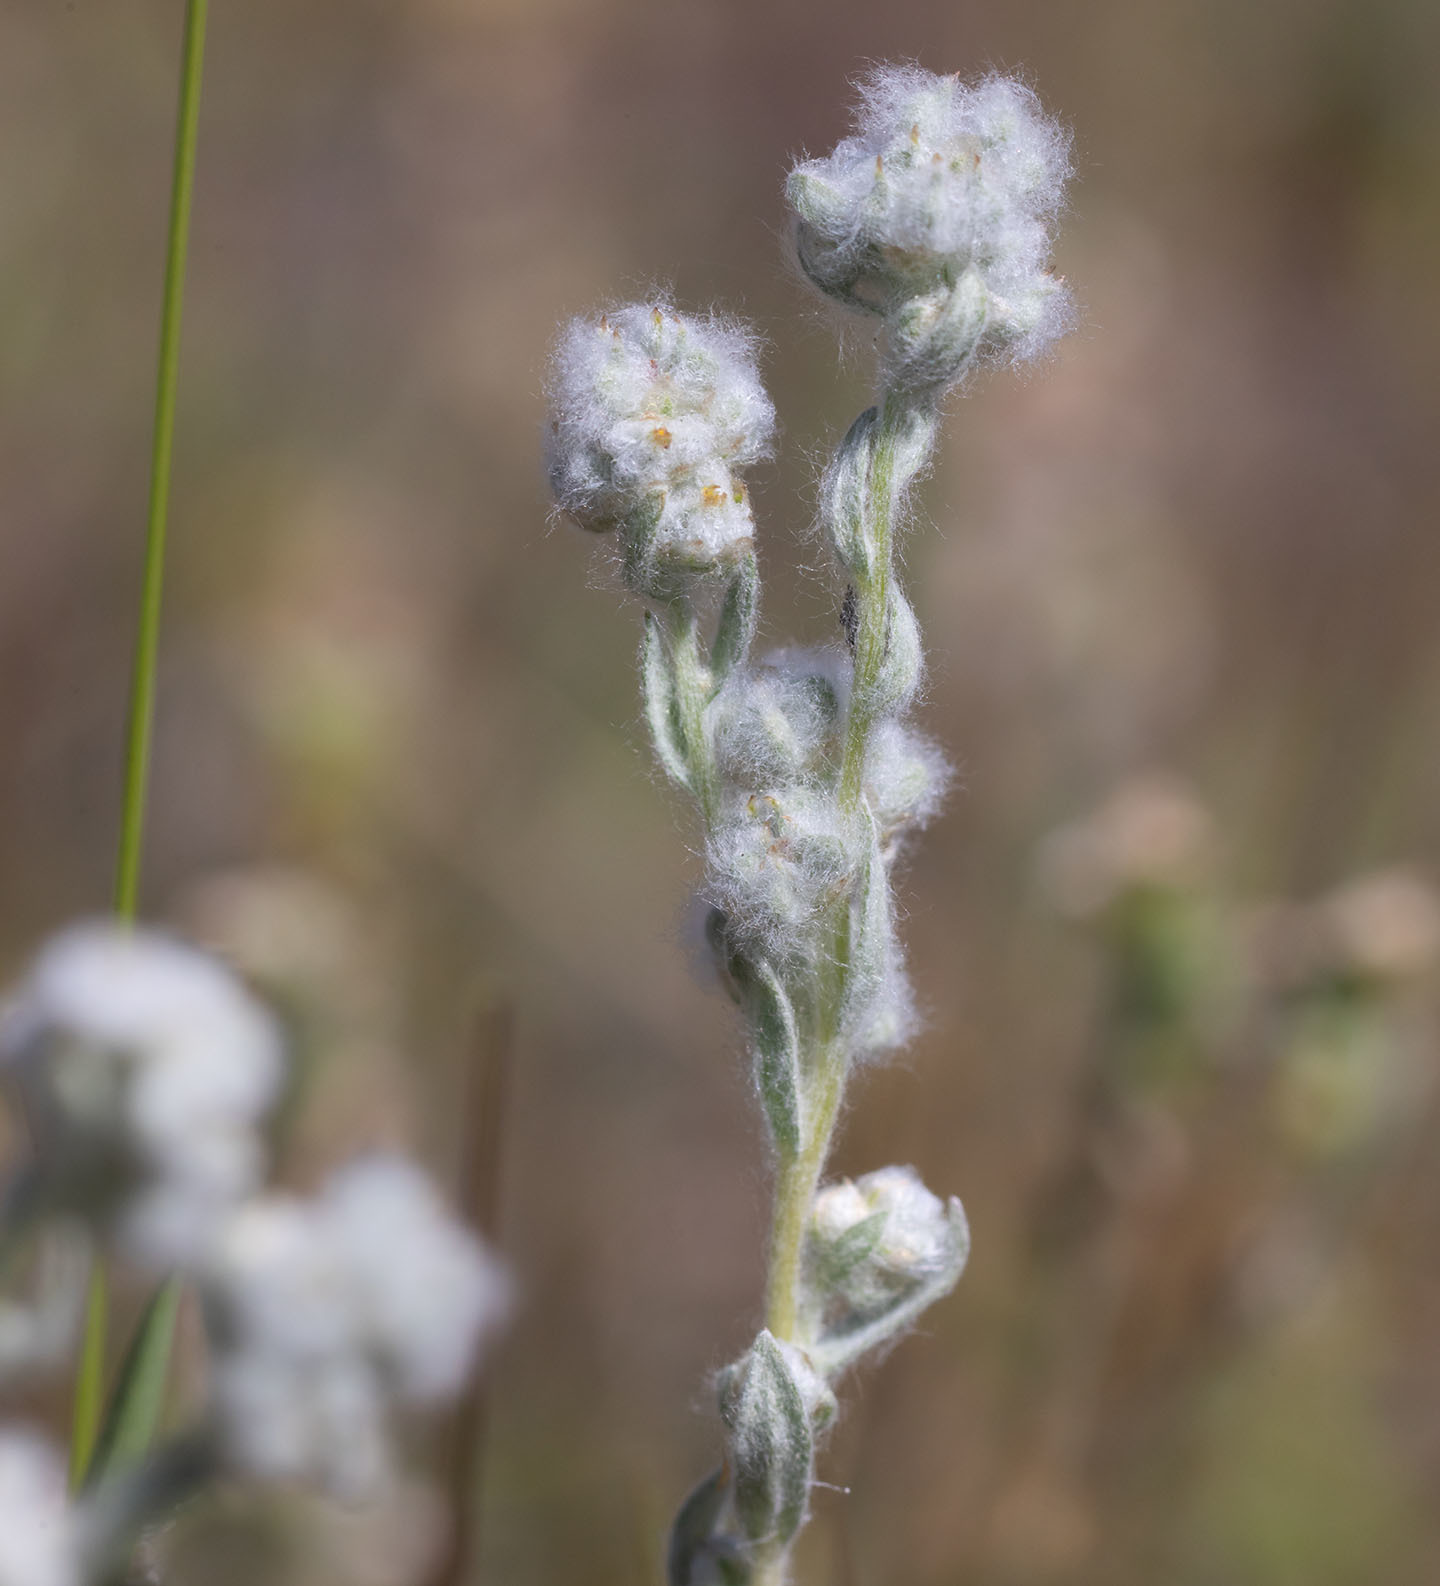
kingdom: Plantae
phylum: Tracheophyta
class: Magnoliopsida
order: Asterales
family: Asteraceae
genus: Bombycilaena
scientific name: Bombycilaena californica
